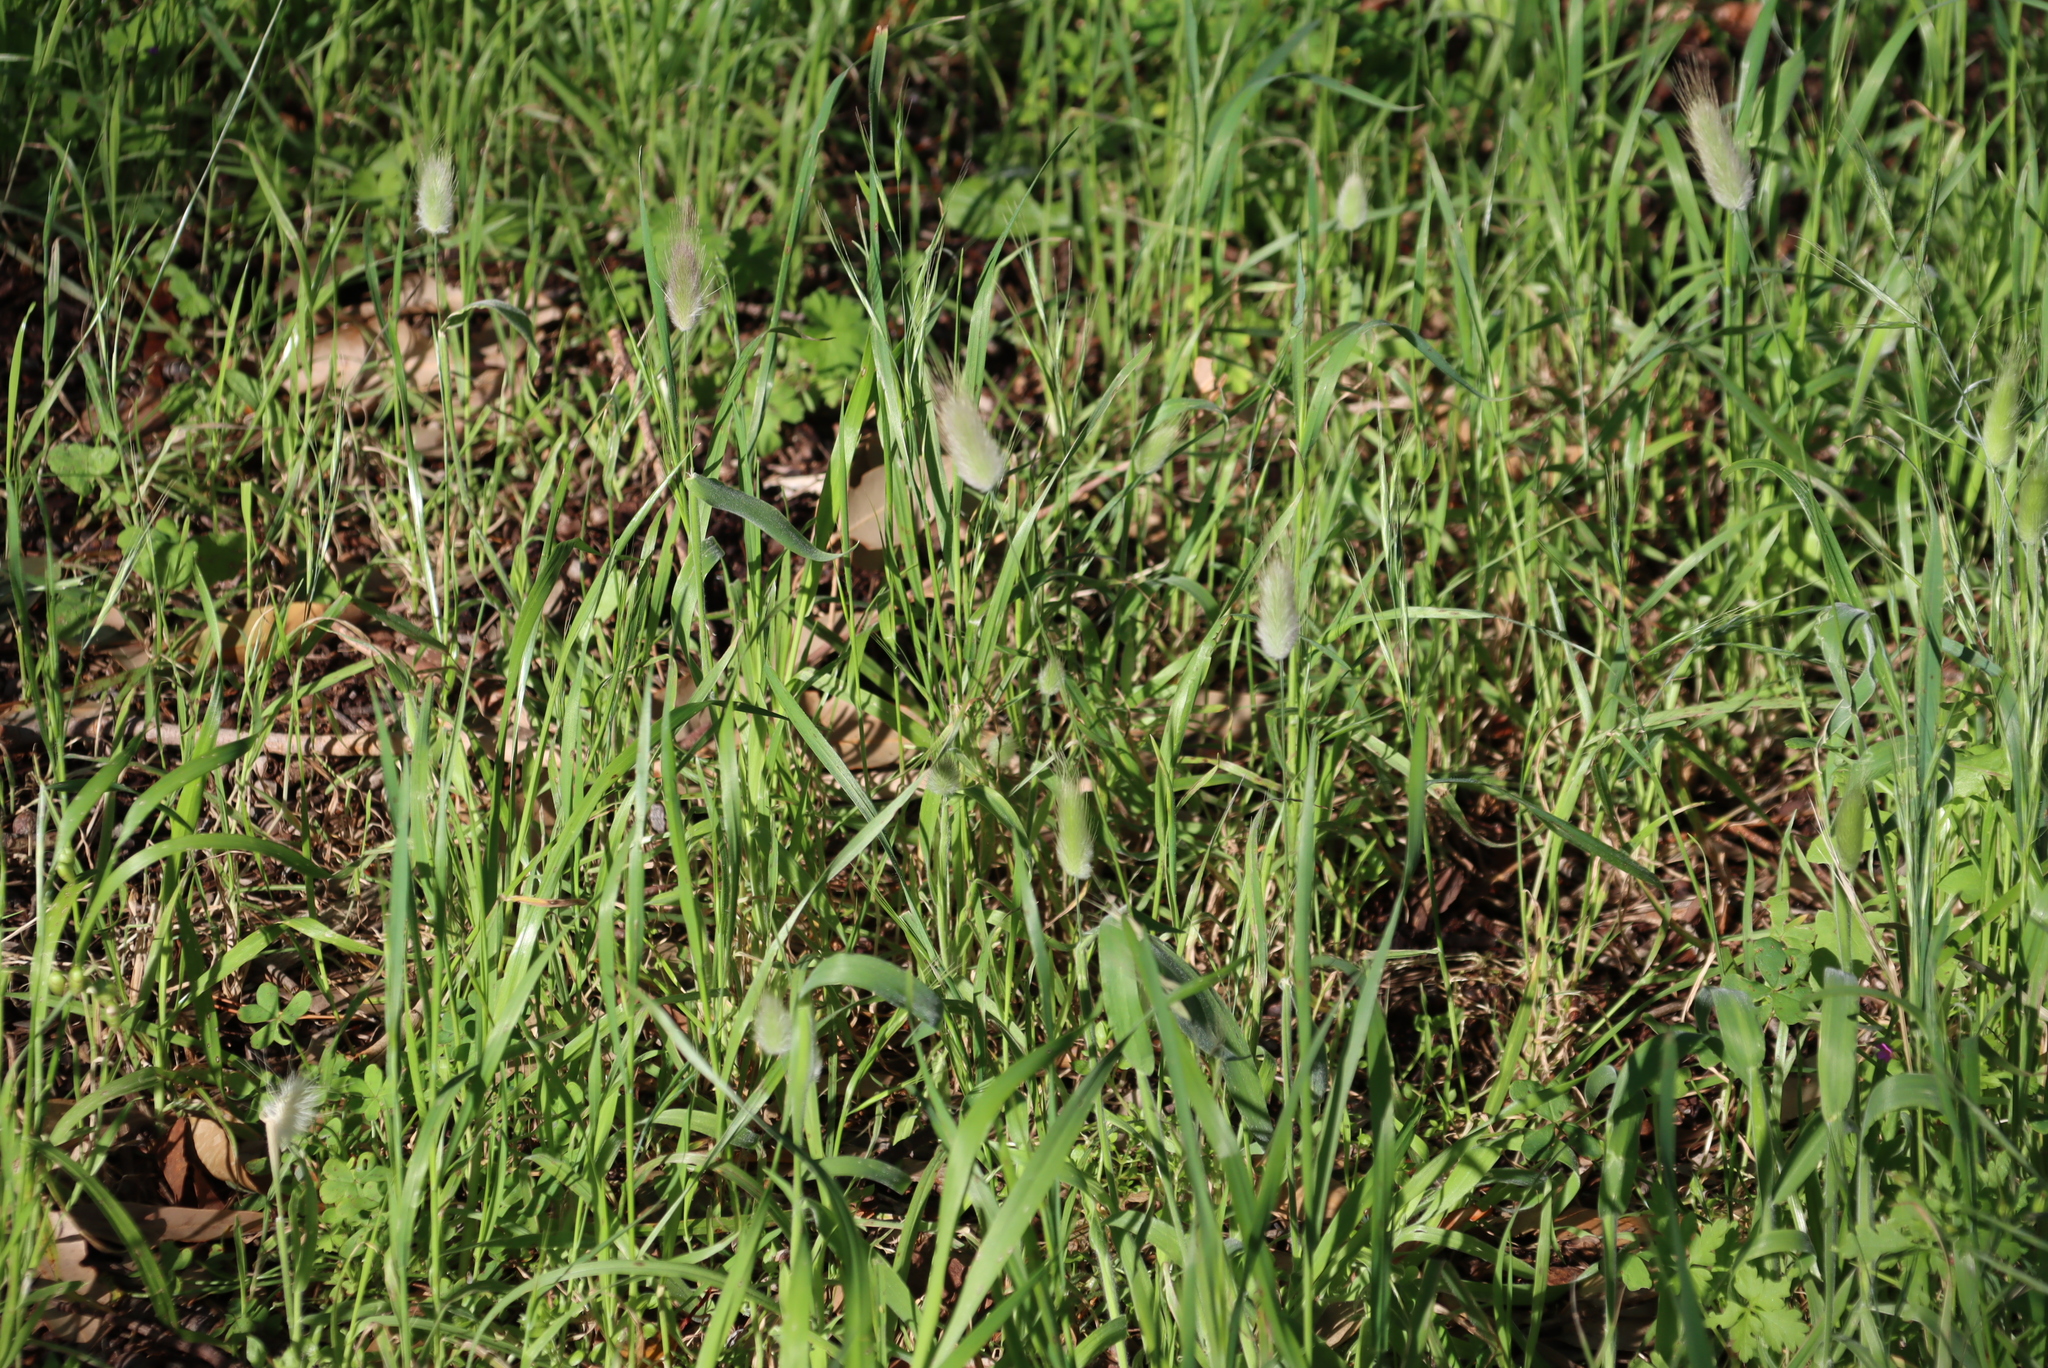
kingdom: Plantae
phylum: Tracheophyta
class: Liliopsida
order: Poales
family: Poaceae
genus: Lagurus
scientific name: Lagurus ovatus
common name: Hare's-tail
